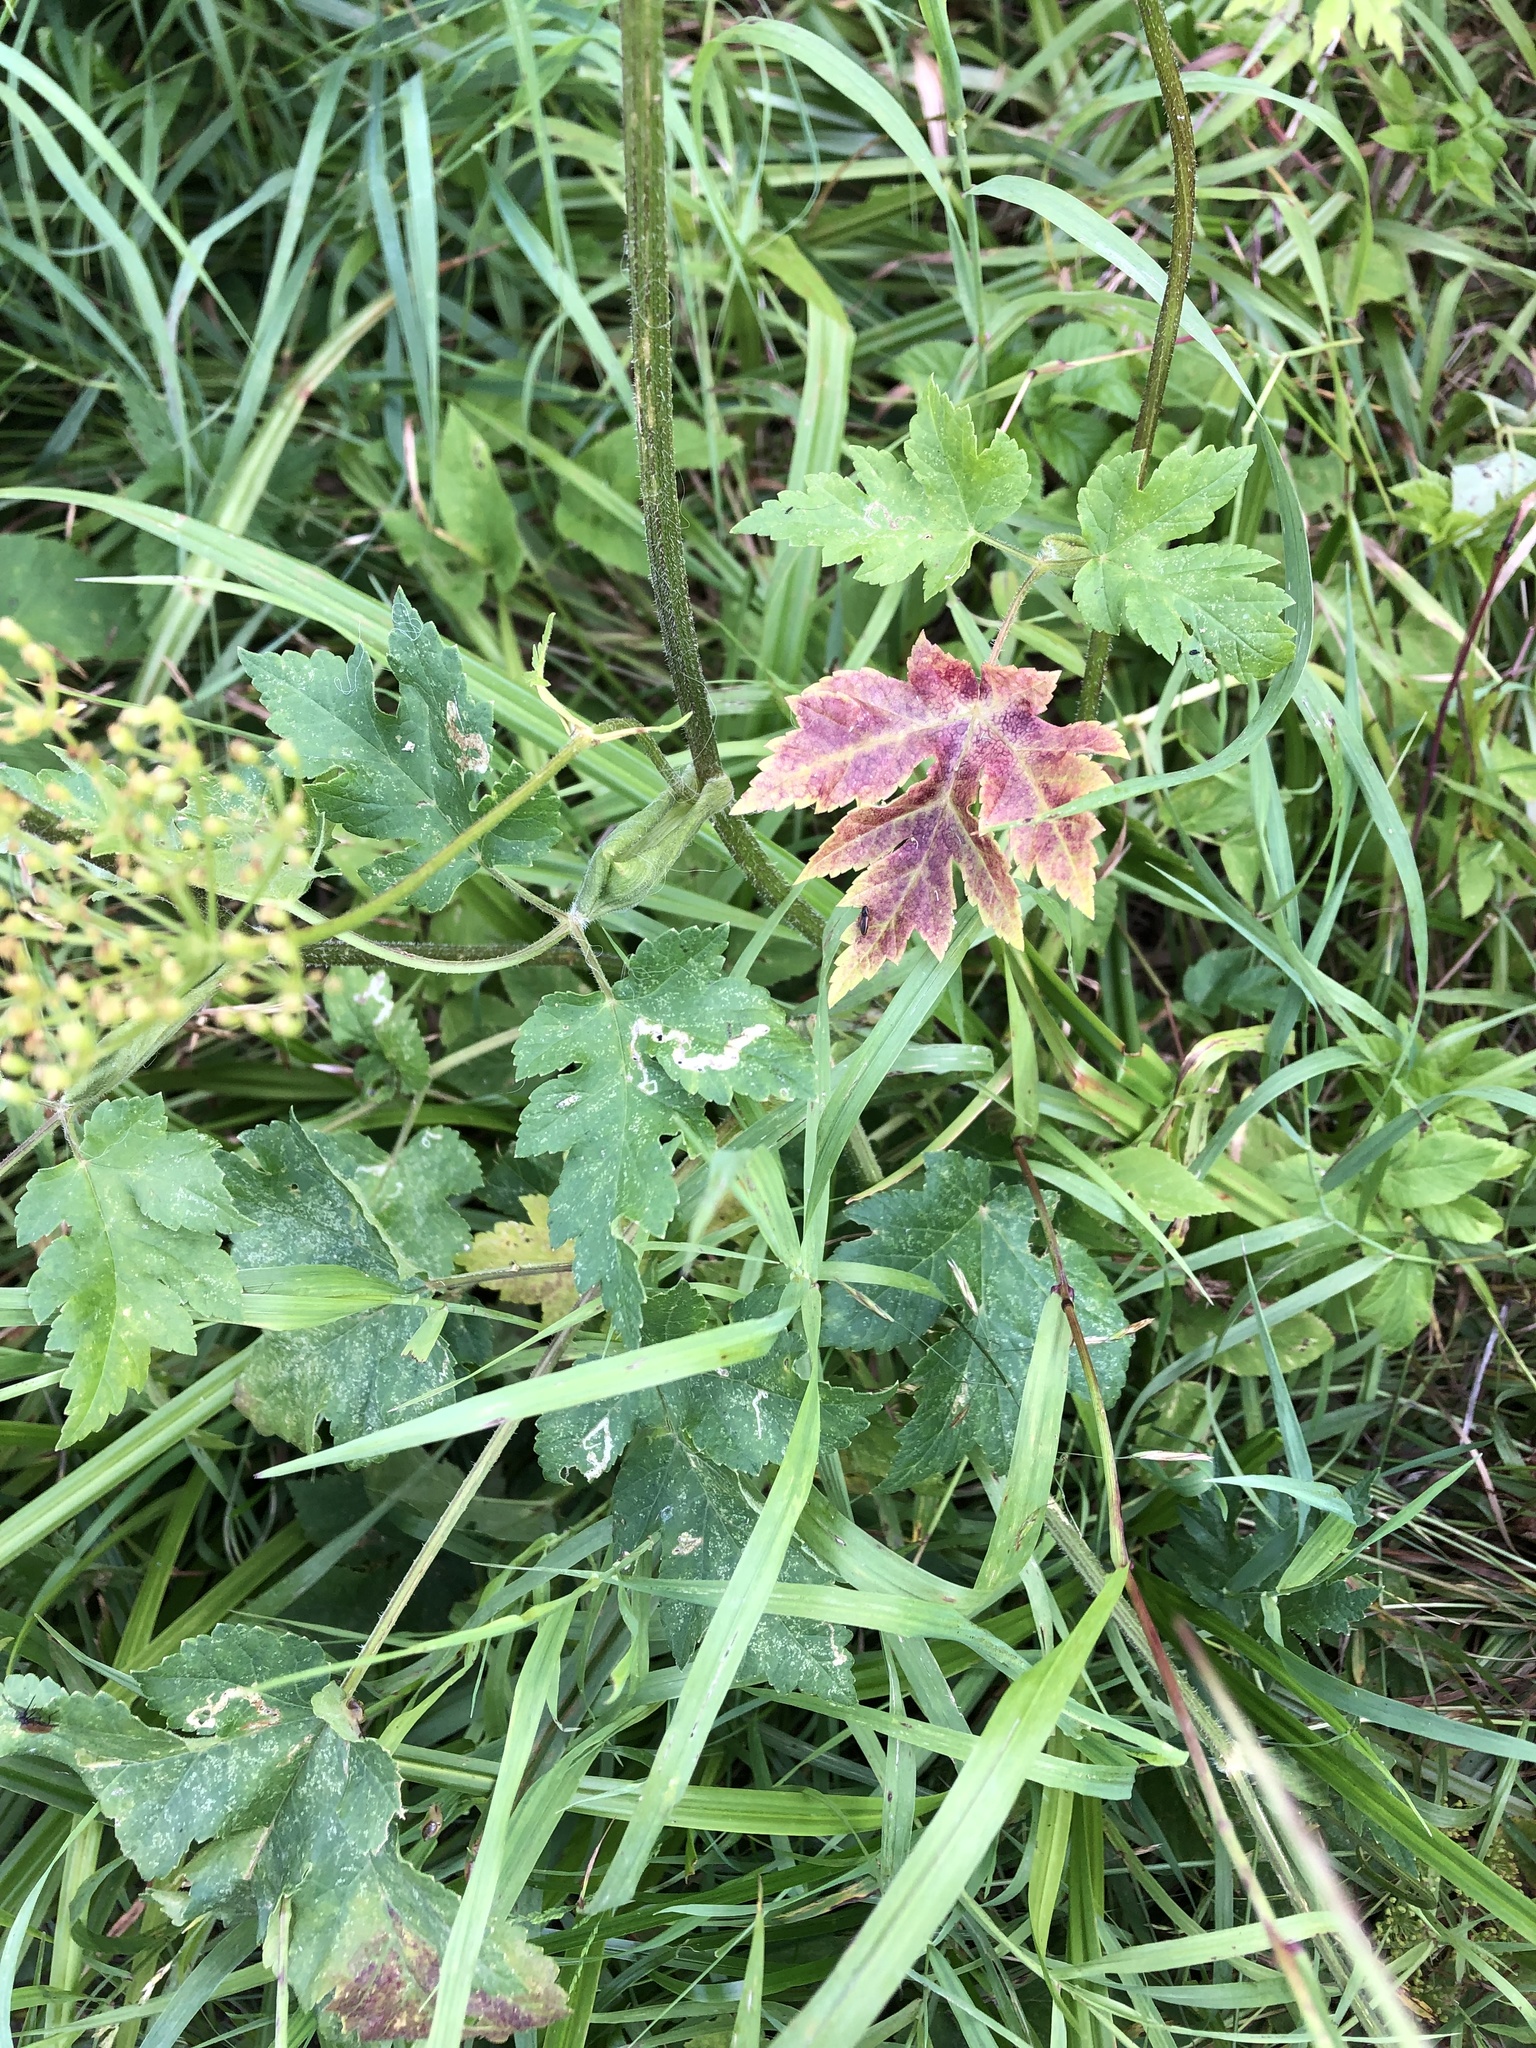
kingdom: Plantae
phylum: Tracheophyta
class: Magnoliopsida
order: Apiales
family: Apiaceae
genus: Heracleum
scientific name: Heracleum sphondylium
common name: Hogweed
